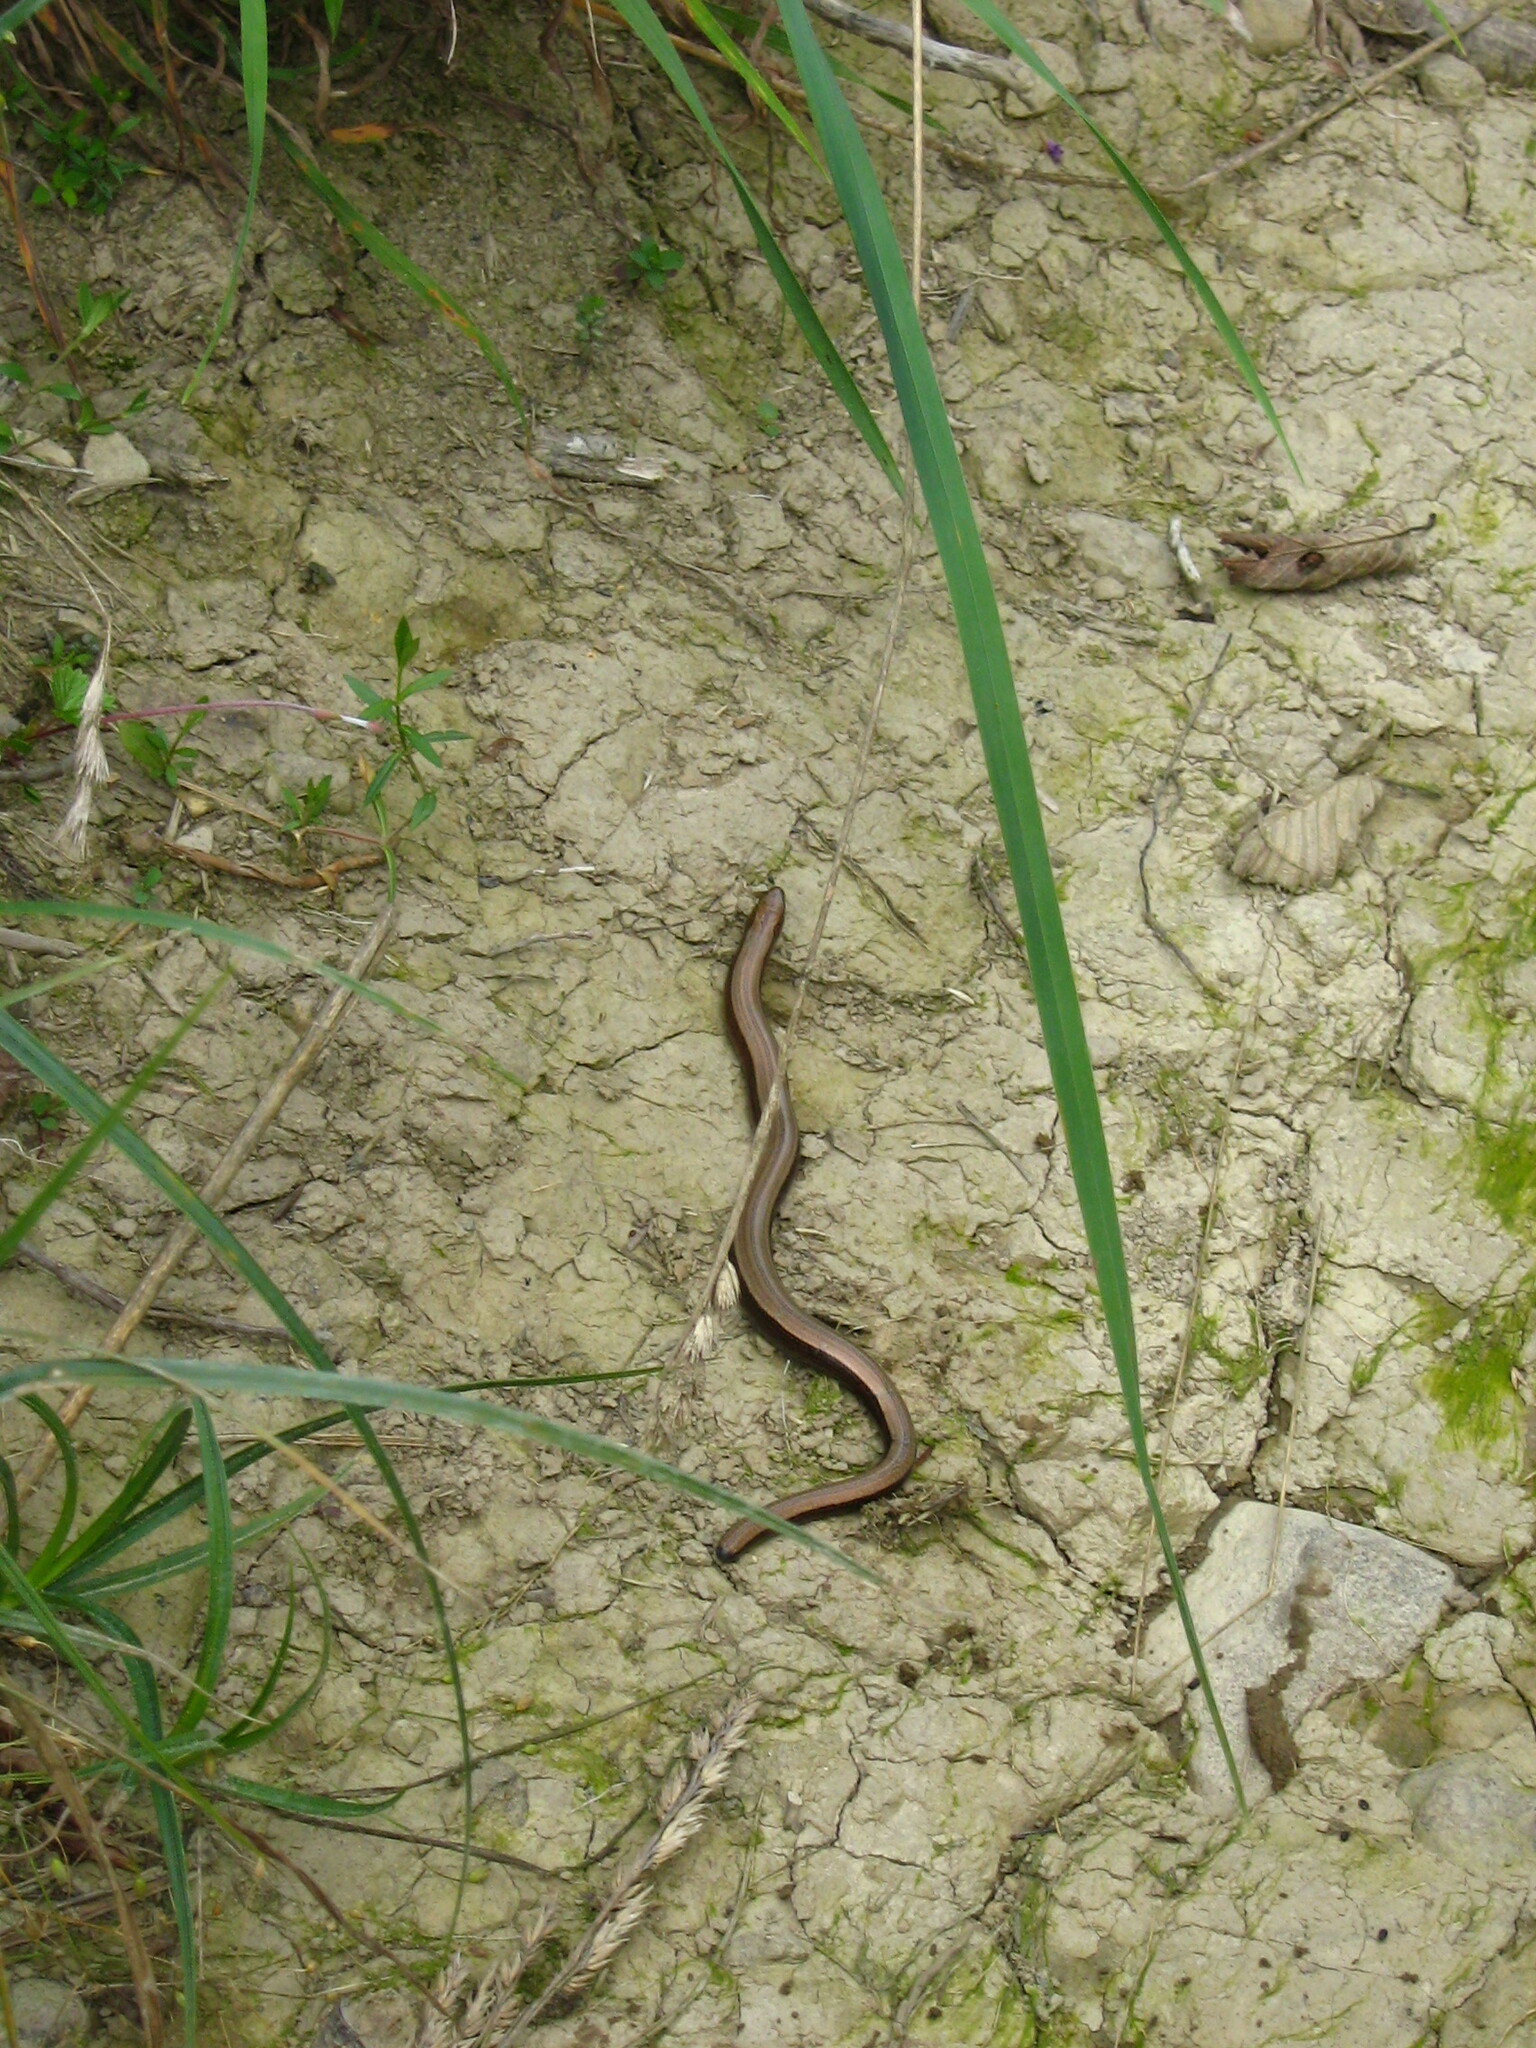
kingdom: Animalia
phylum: Chordata
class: Squamata
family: Anguidae
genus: Anguis
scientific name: Anguis colchica
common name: Slow worm
